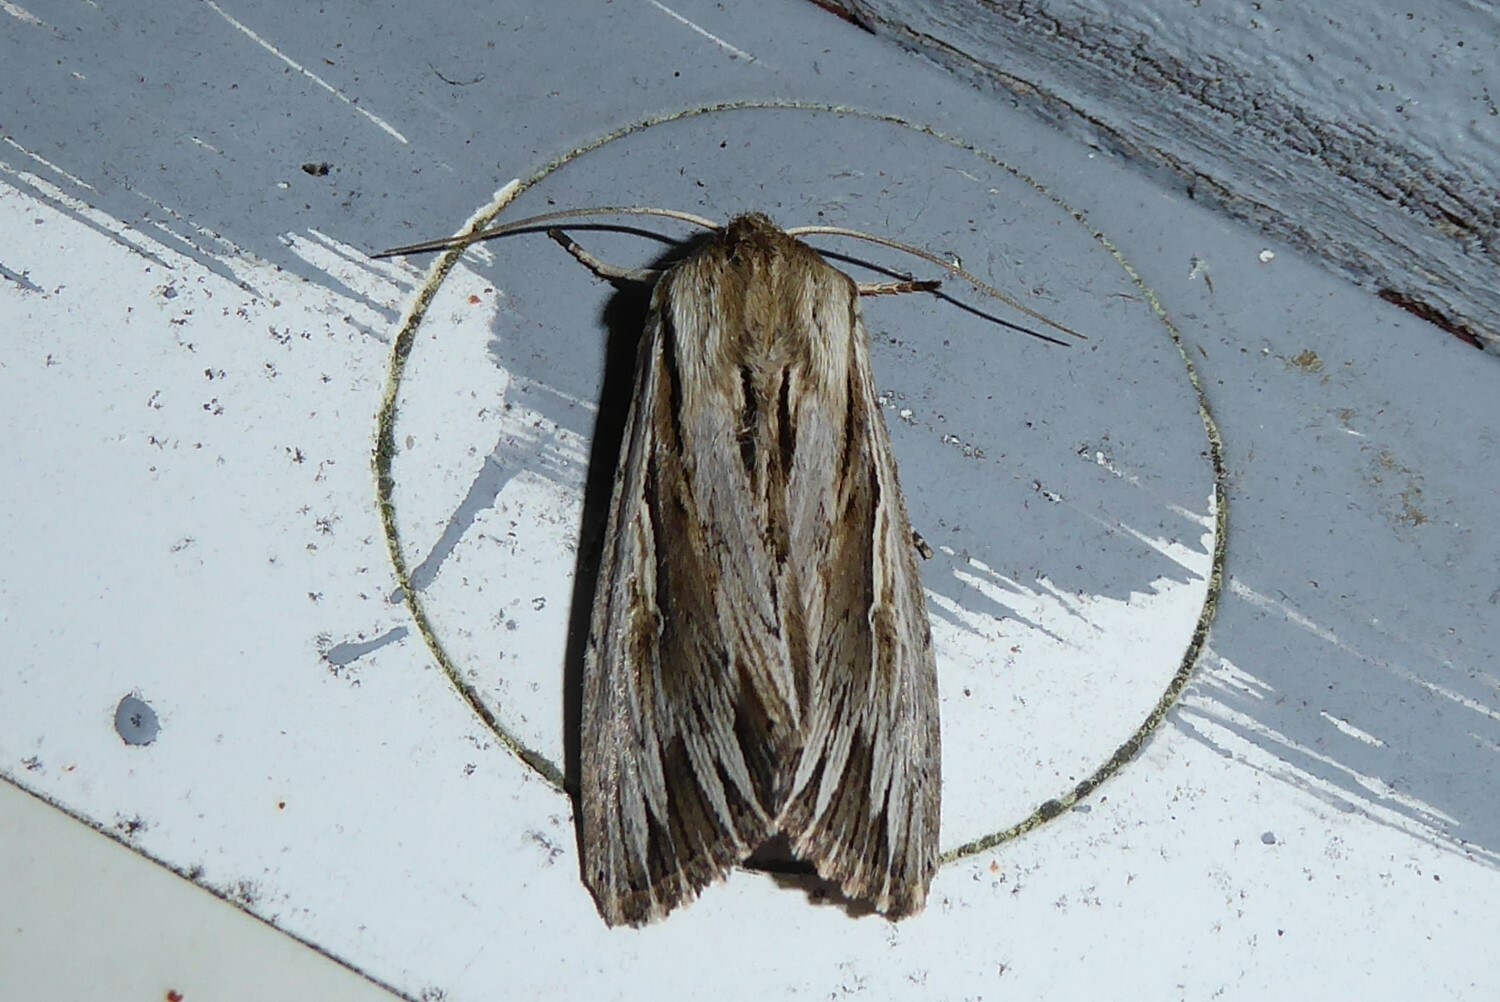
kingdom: Animalia
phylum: Arthropoda
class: Insecta
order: Lepidoptera
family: Noctuidae
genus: Persectania
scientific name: Persectania aversa
